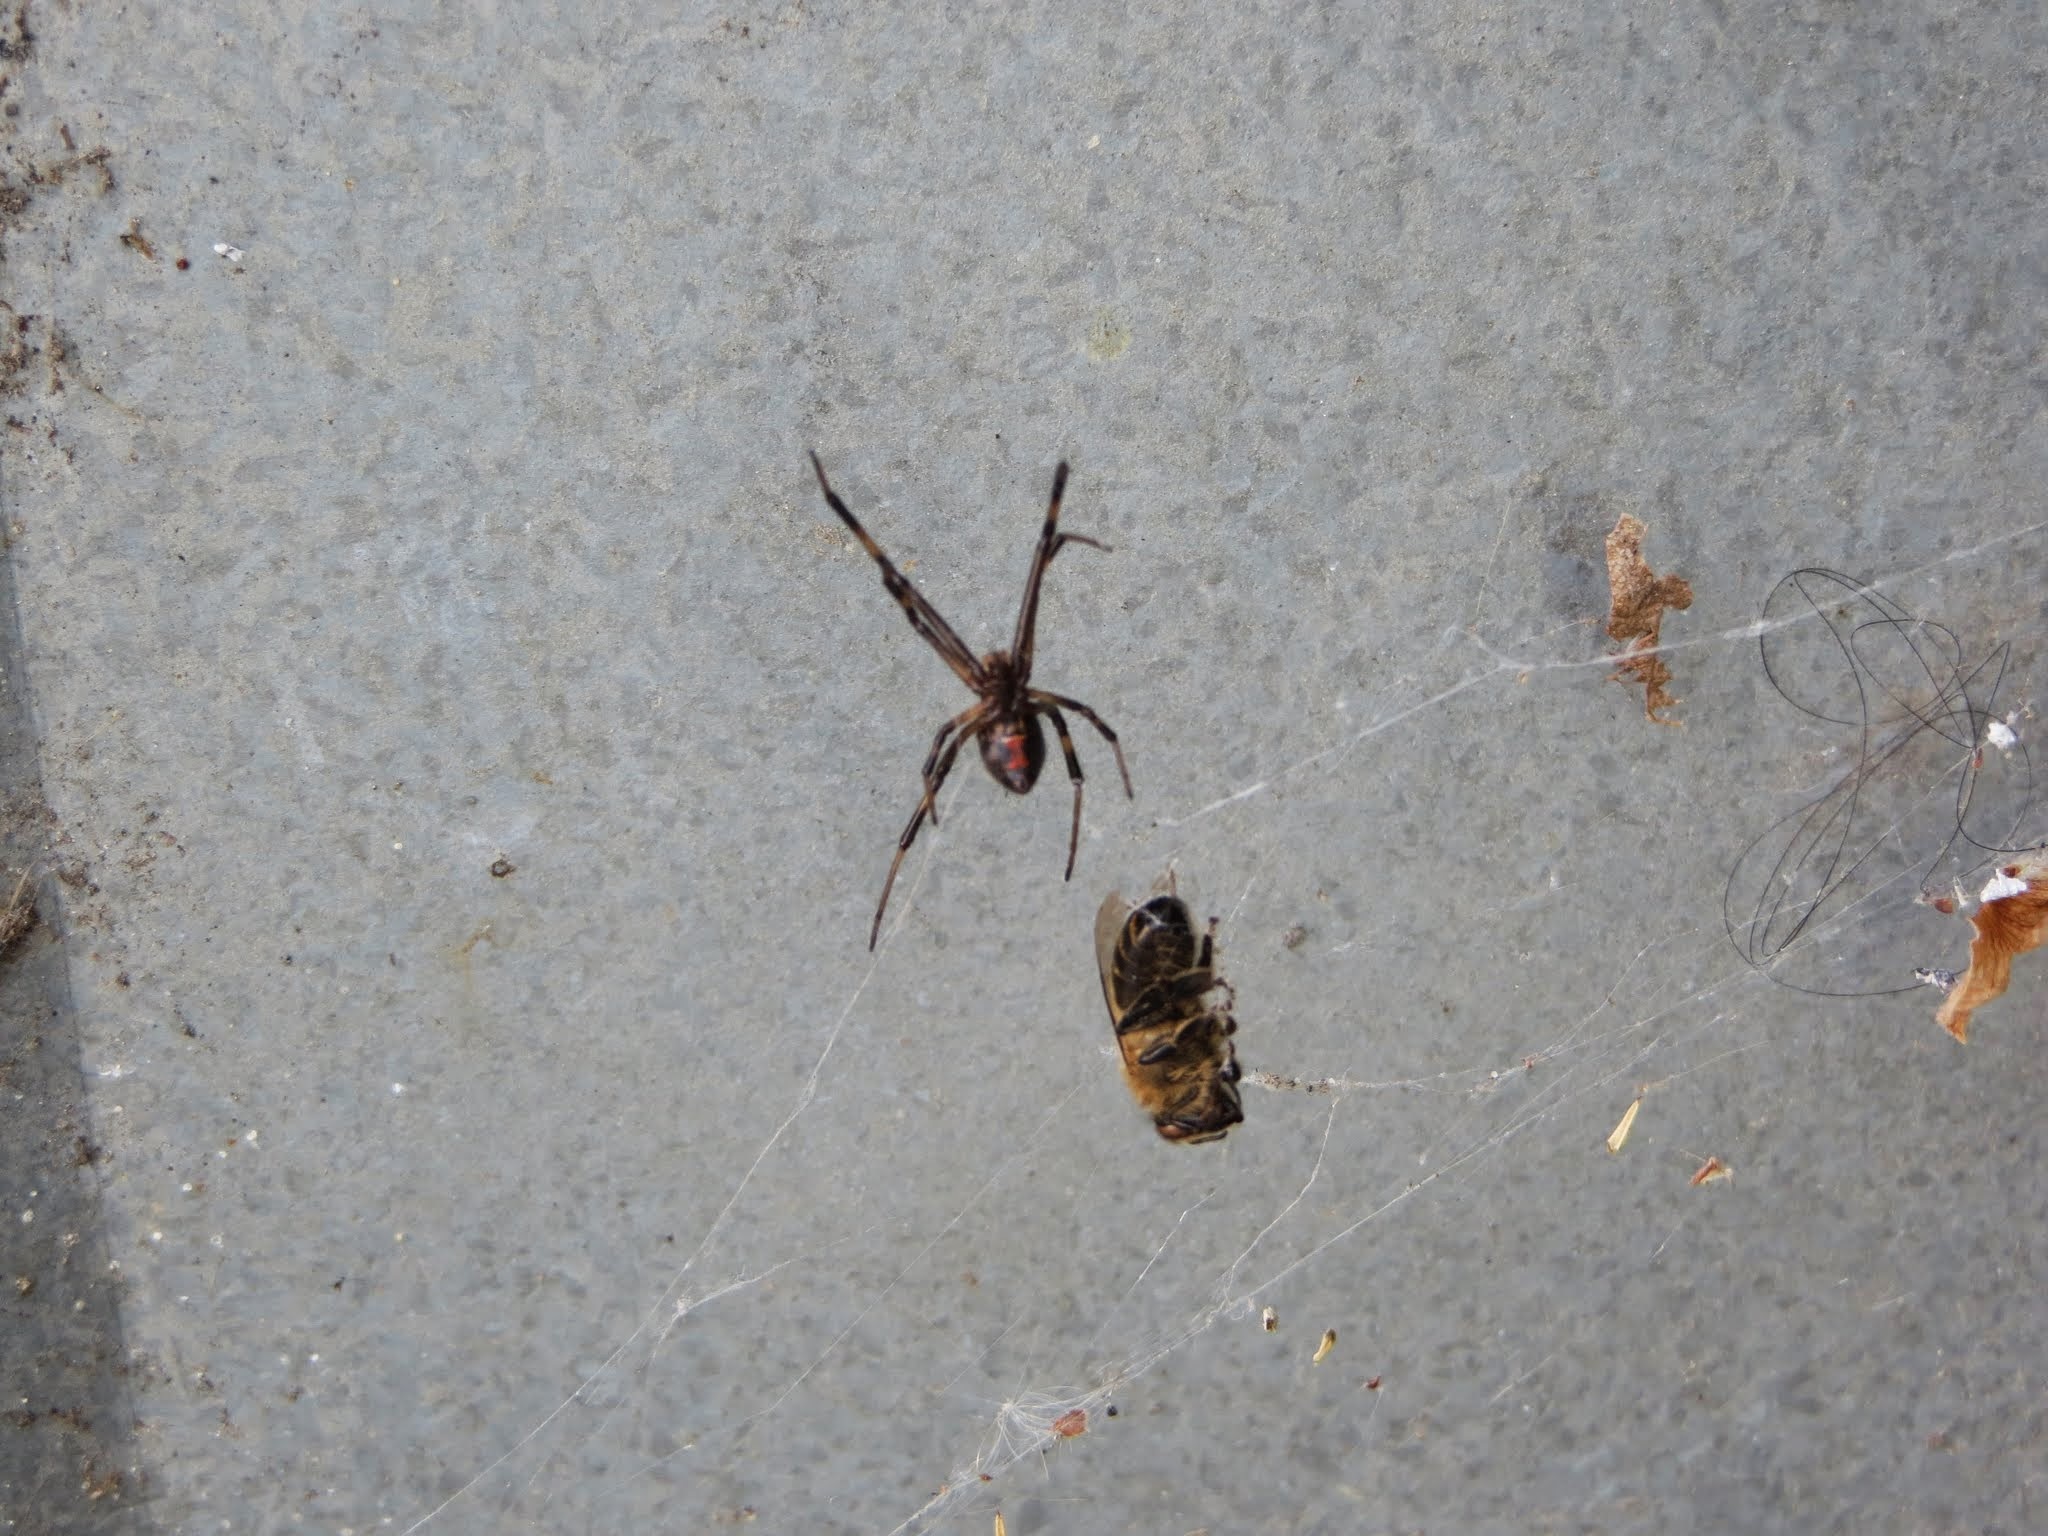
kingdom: Animalia
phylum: Arthropoda
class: Insecta
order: Hymenoptera
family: Apidae
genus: Apis
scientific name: Apis mellifera
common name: Honey bee
